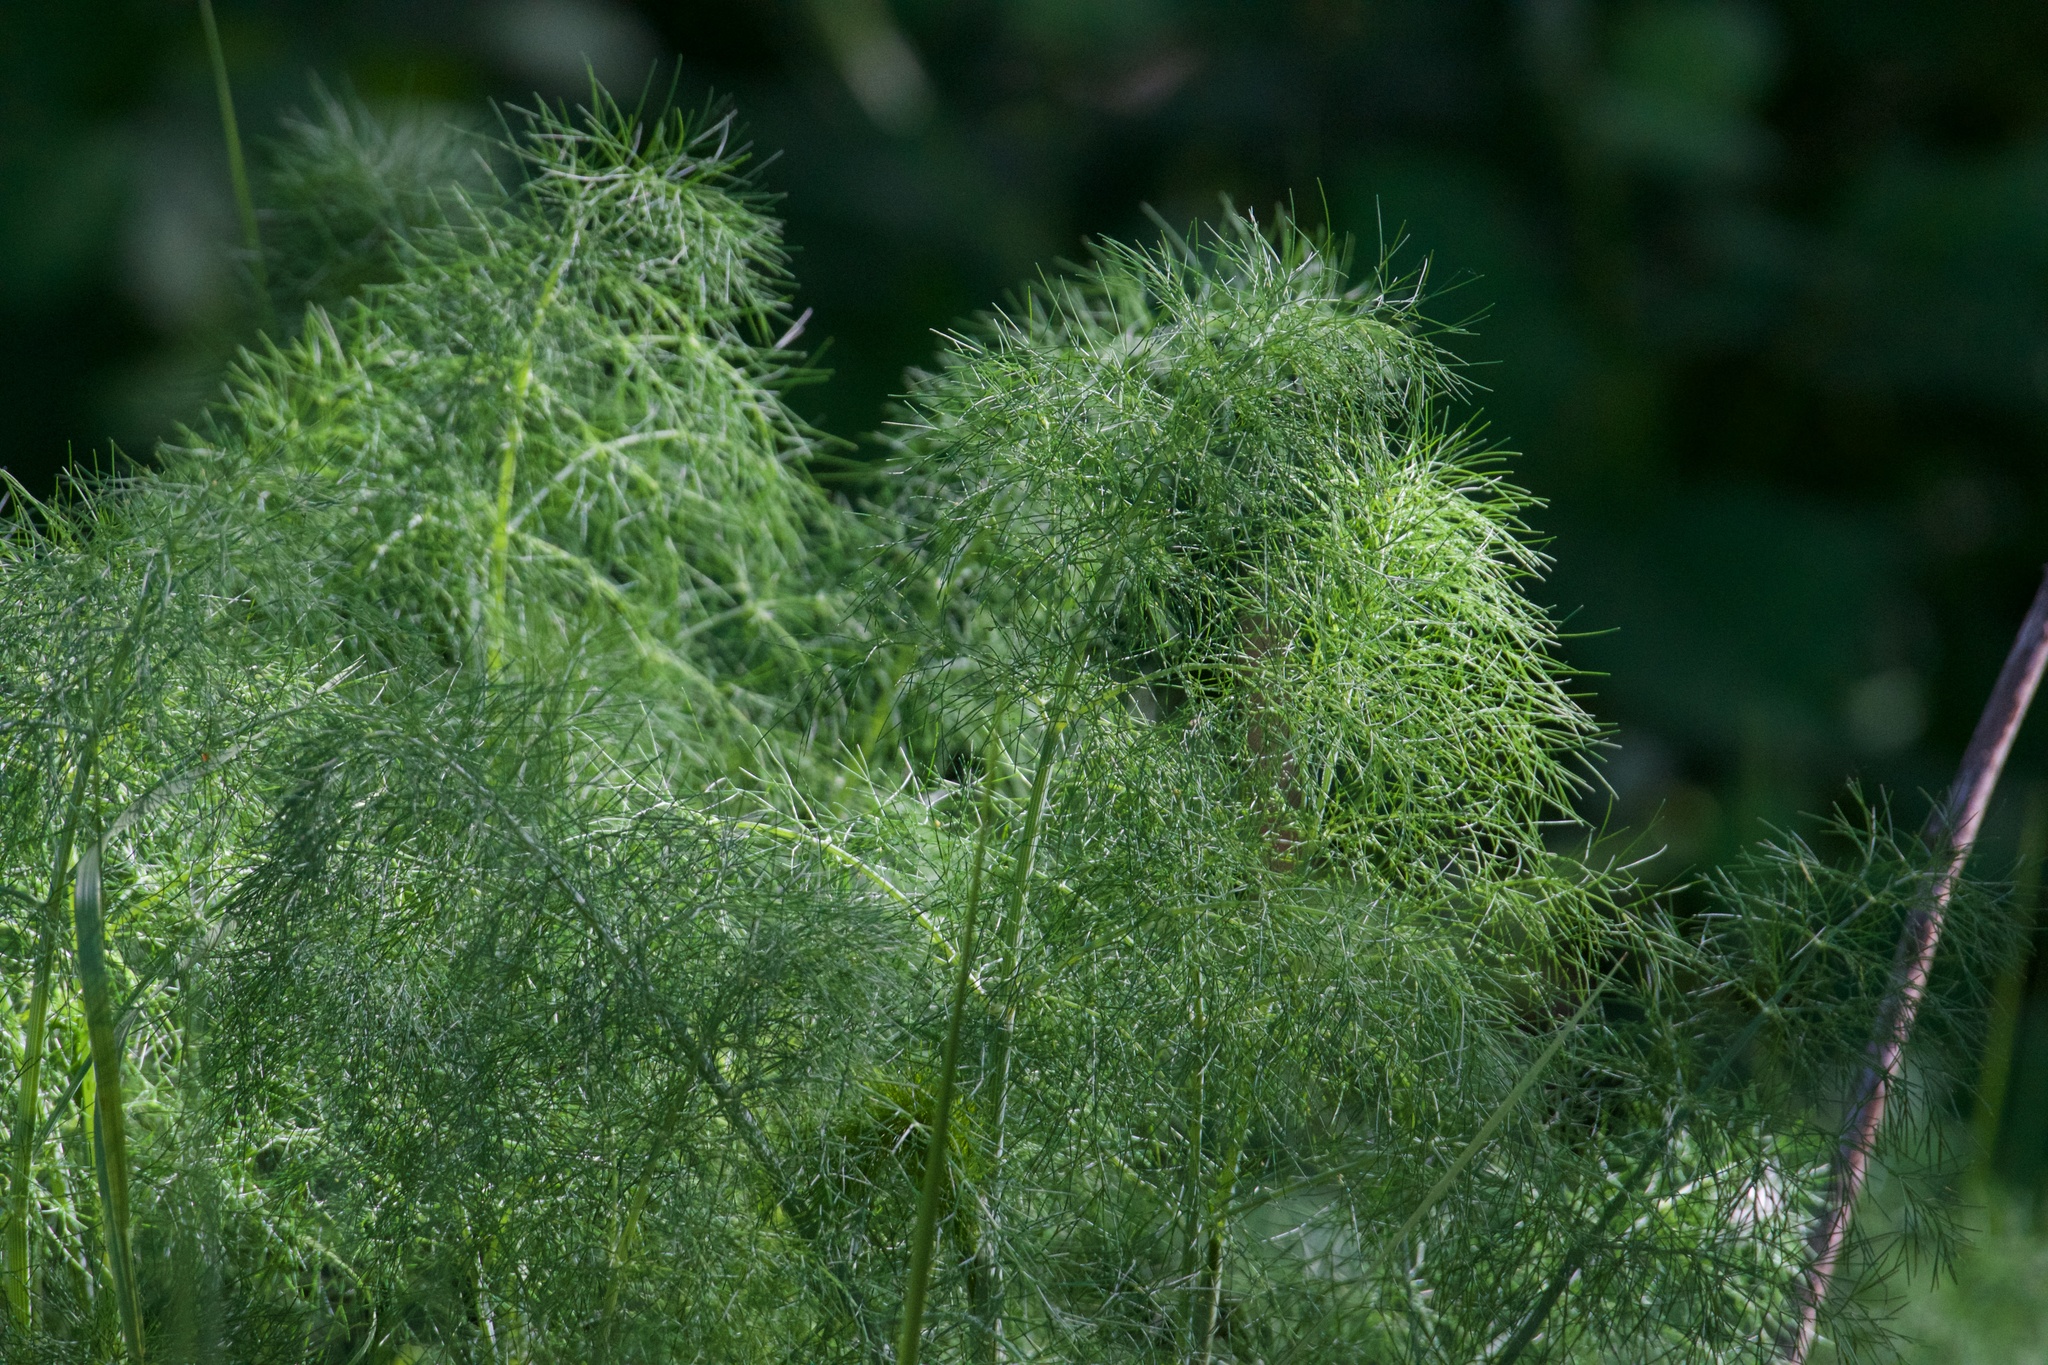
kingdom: Plantae
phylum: Tracheophyta
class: Magnoliopsida
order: Apiales
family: Apiaceae
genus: Foeniculum
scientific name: Foeniculum vulgare
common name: Fennel
